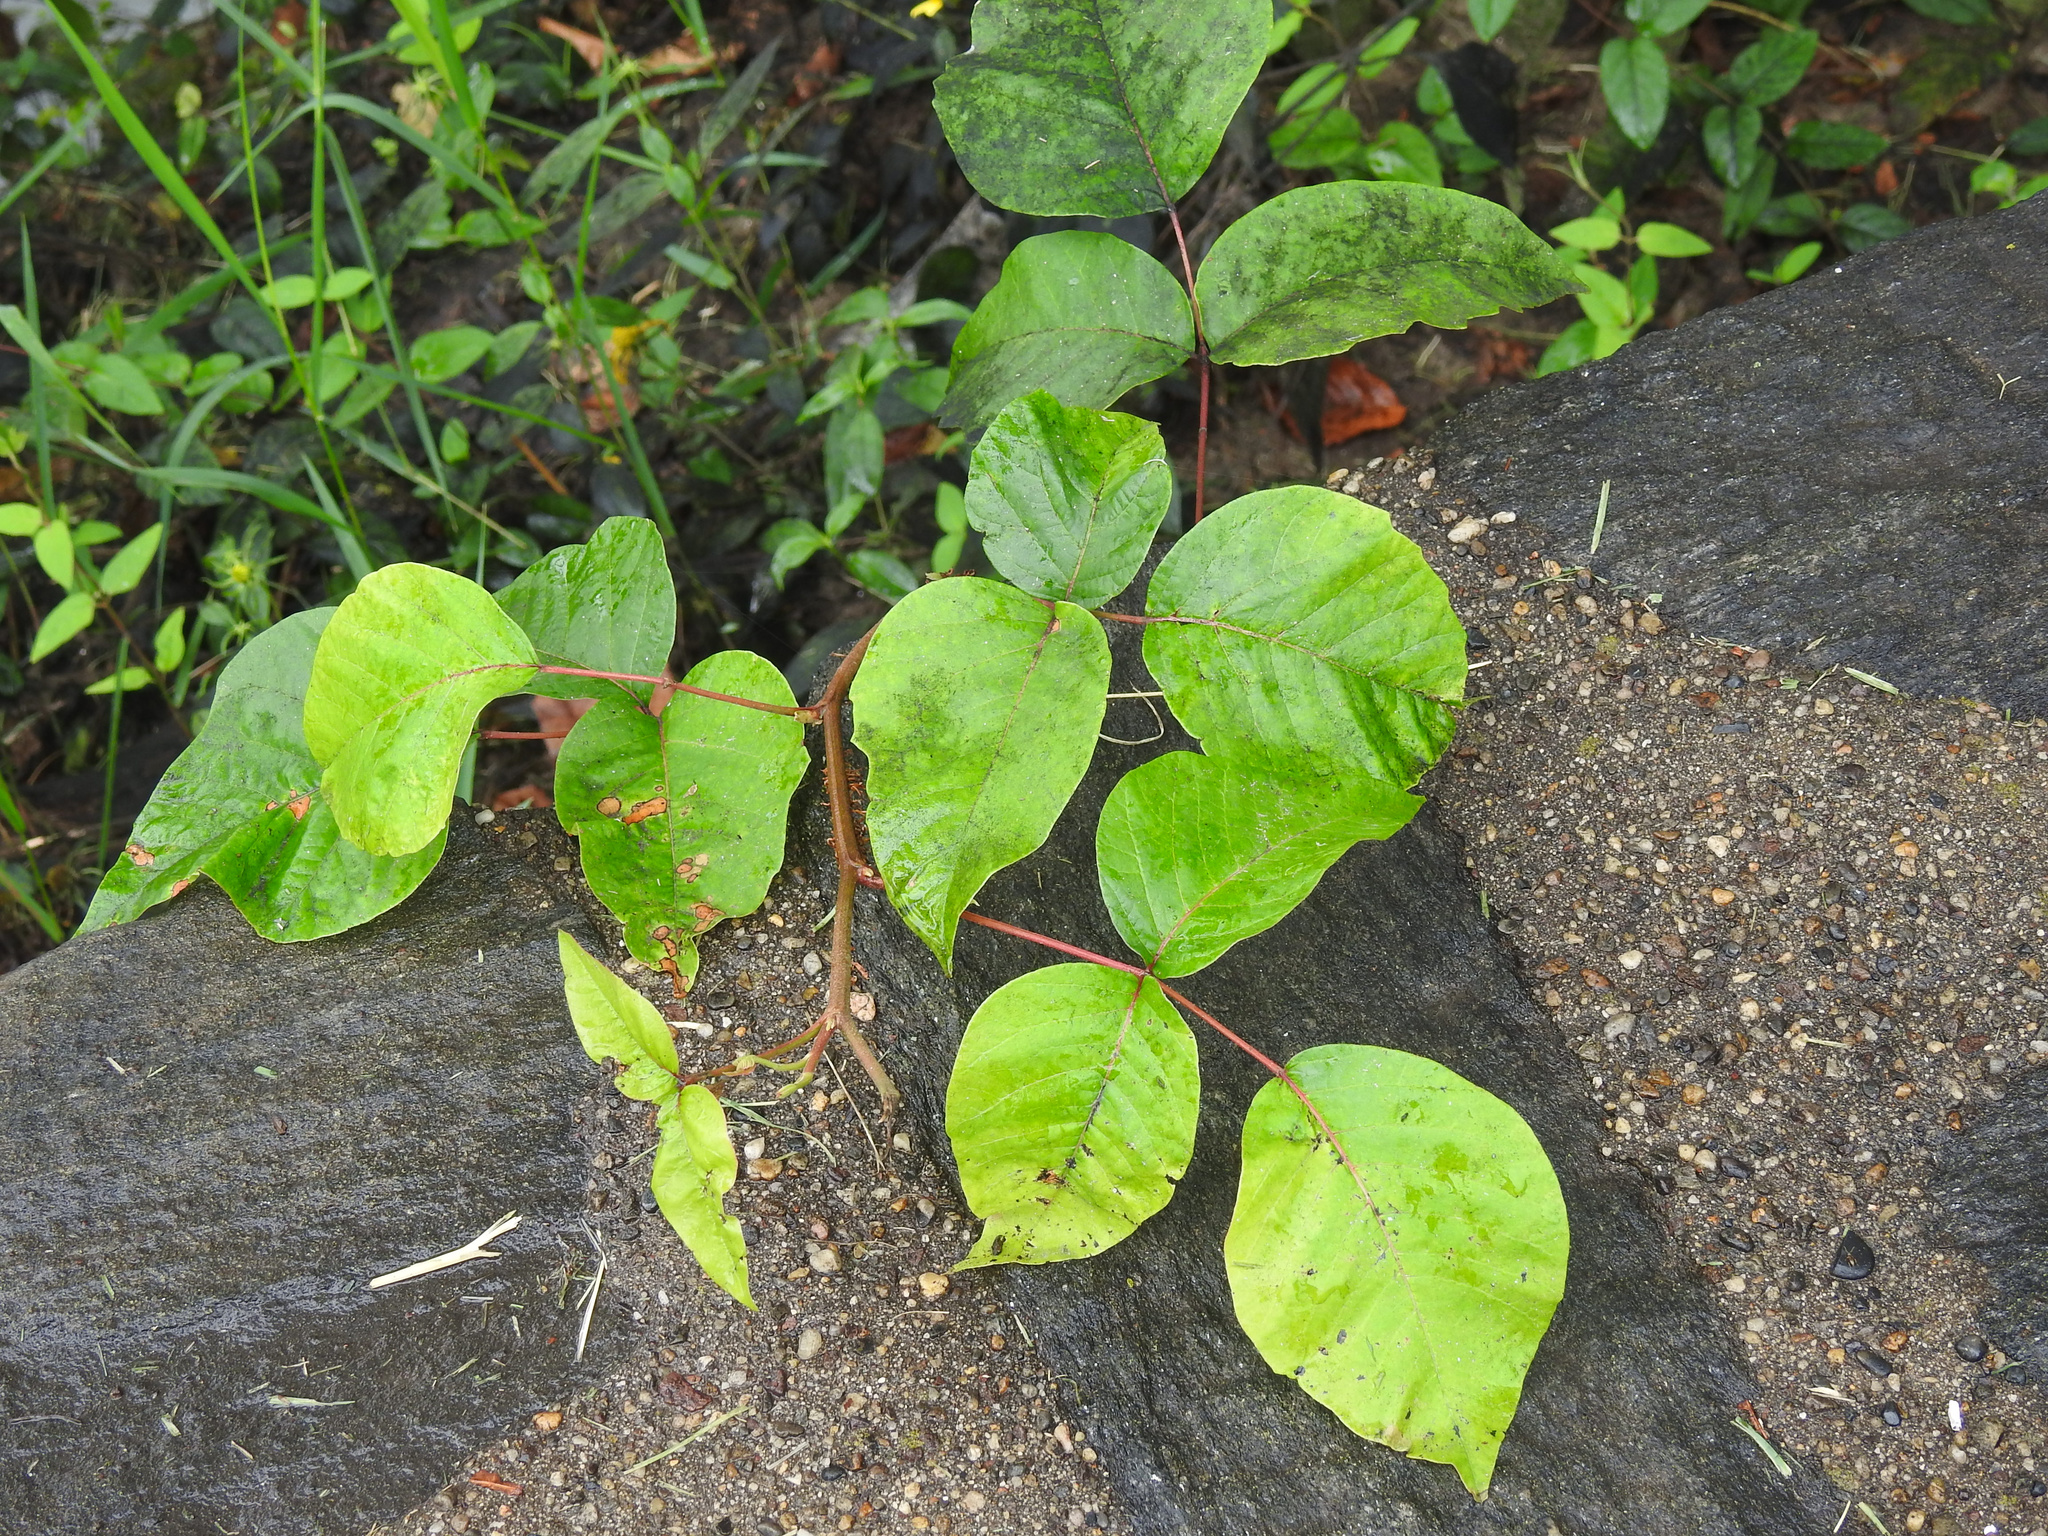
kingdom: Plantae
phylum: Tracheophyta
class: Magnoliopsida
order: Sapindales
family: Anacardiaceae
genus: Toxicodendron
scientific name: Toxicodendron radicans
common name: Poison ivy
